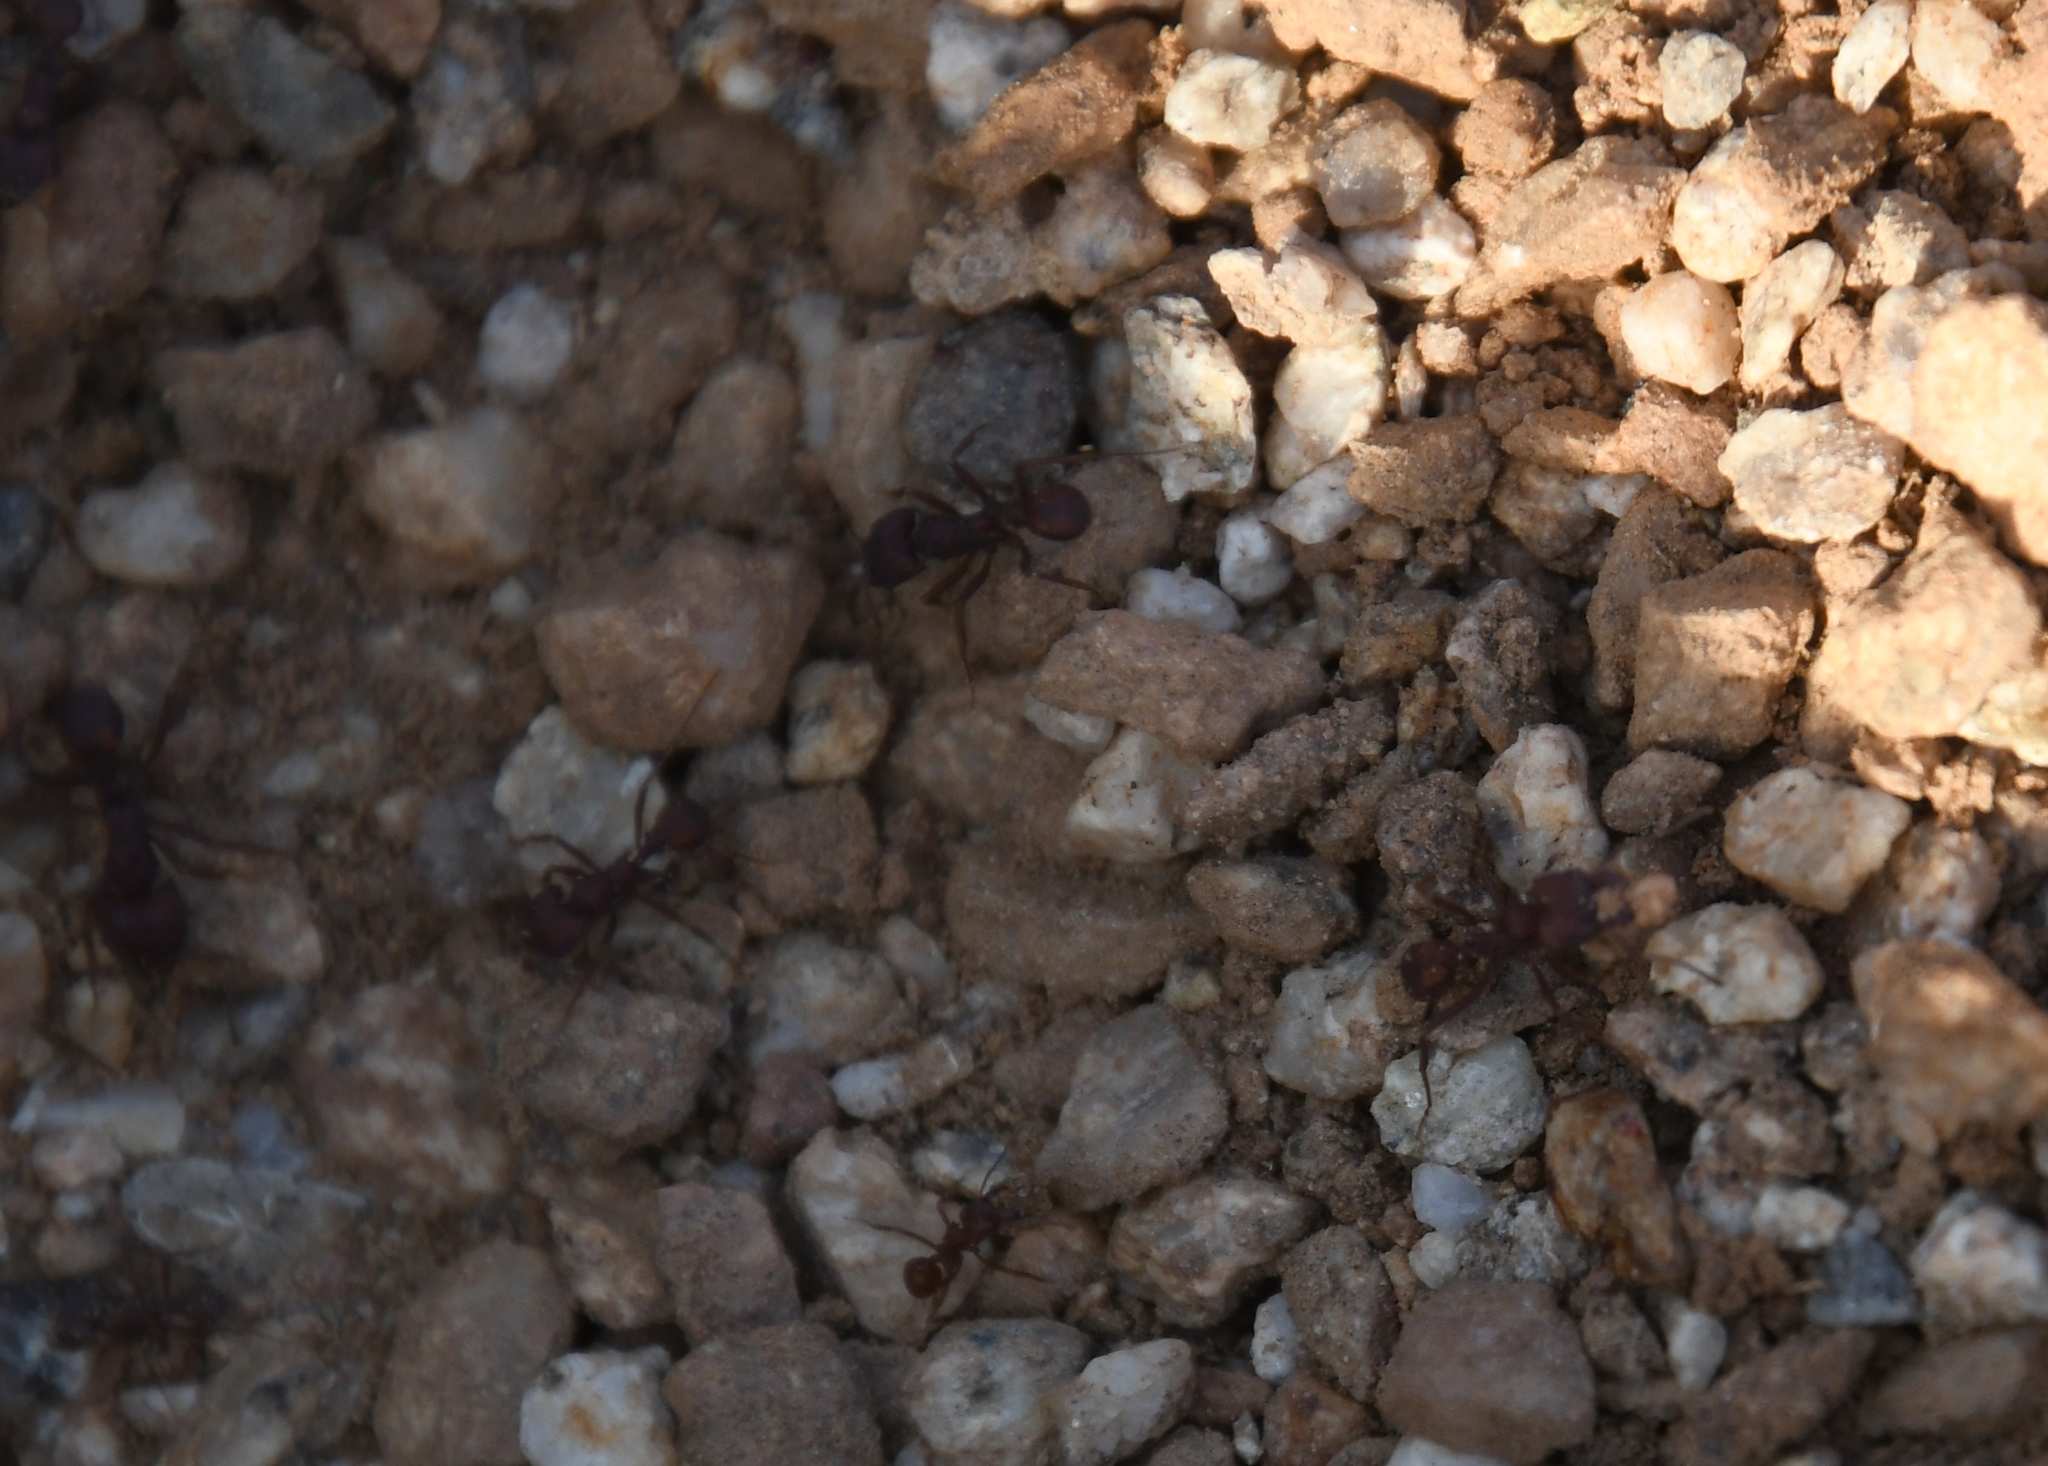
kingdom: Animalia
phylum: Arthropoda
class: Insecta
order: Hymenoptera
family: Formicidae
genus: Acromyrmex
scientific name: Acromyrmex versicolor
